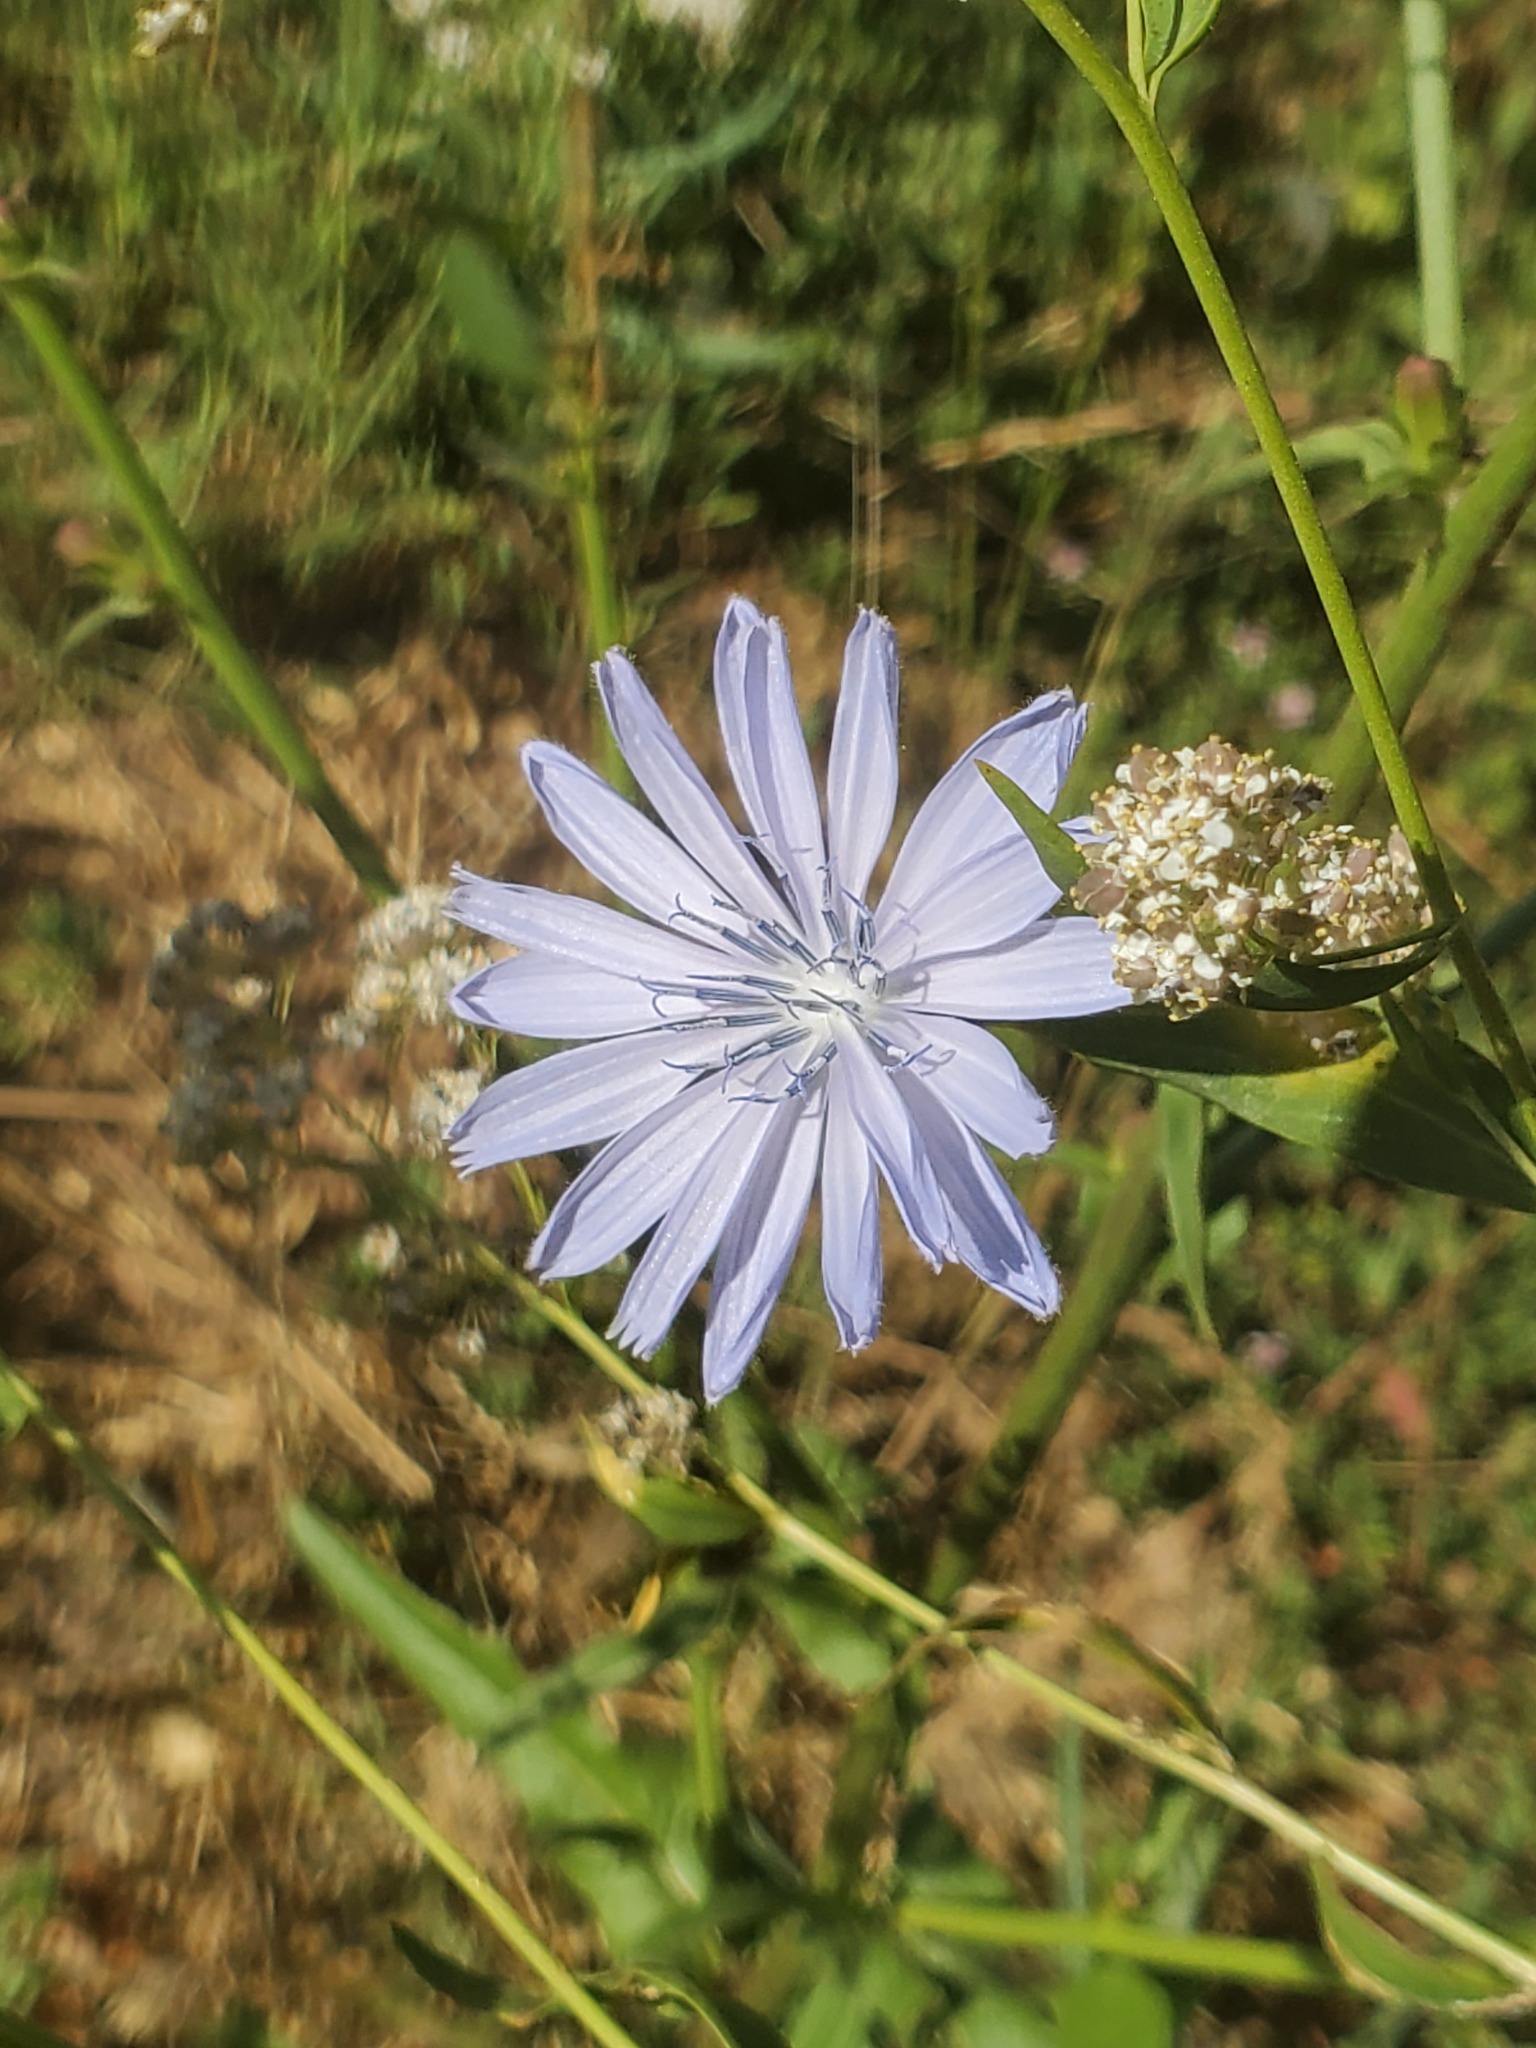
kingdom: Plantae
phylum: Tracheophyta
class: Magnoliopsida
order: Asterales
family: Asteraceae
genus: Cichorium
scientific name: Cichorium intybus
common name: Chicory
